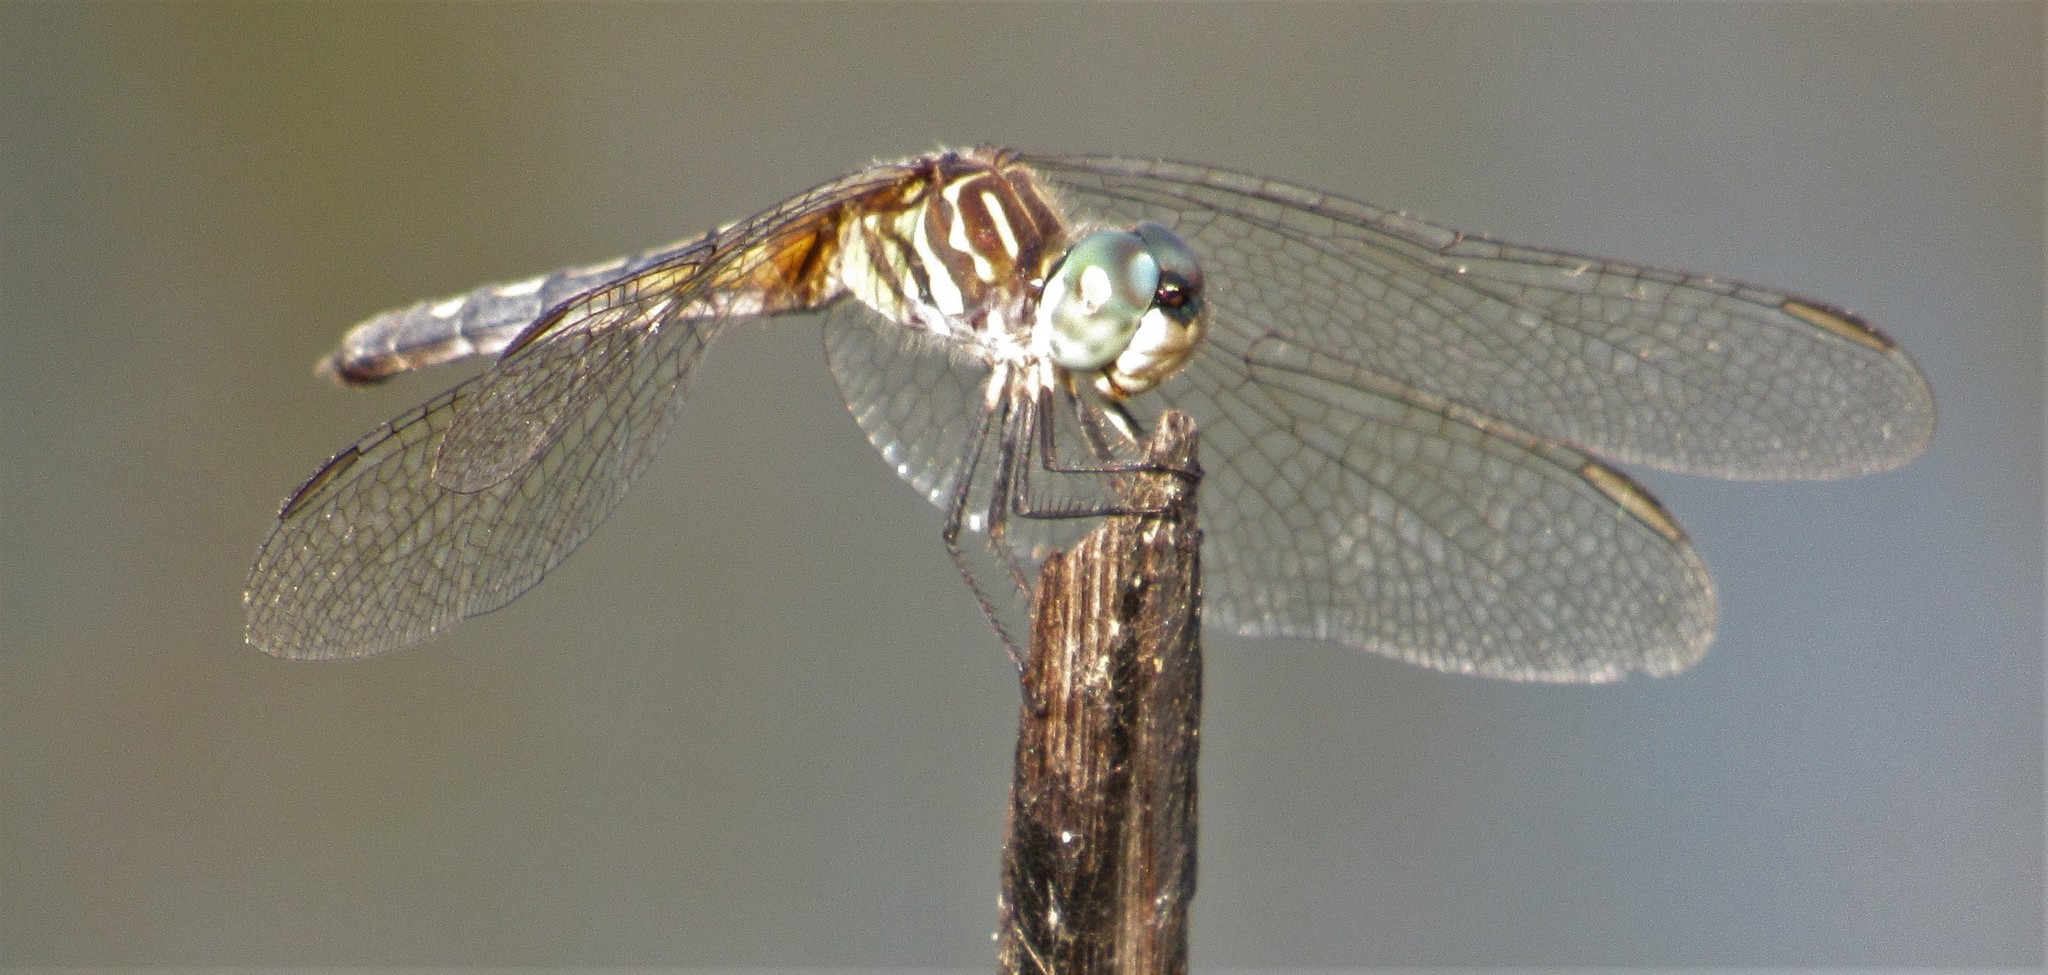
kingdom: Animalia
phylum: Arthropoda
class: Insecta
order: Odonata
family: Libellulidae
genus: Pachydiplax
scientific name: Pachydiplax longipennis
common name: Blue dasher
